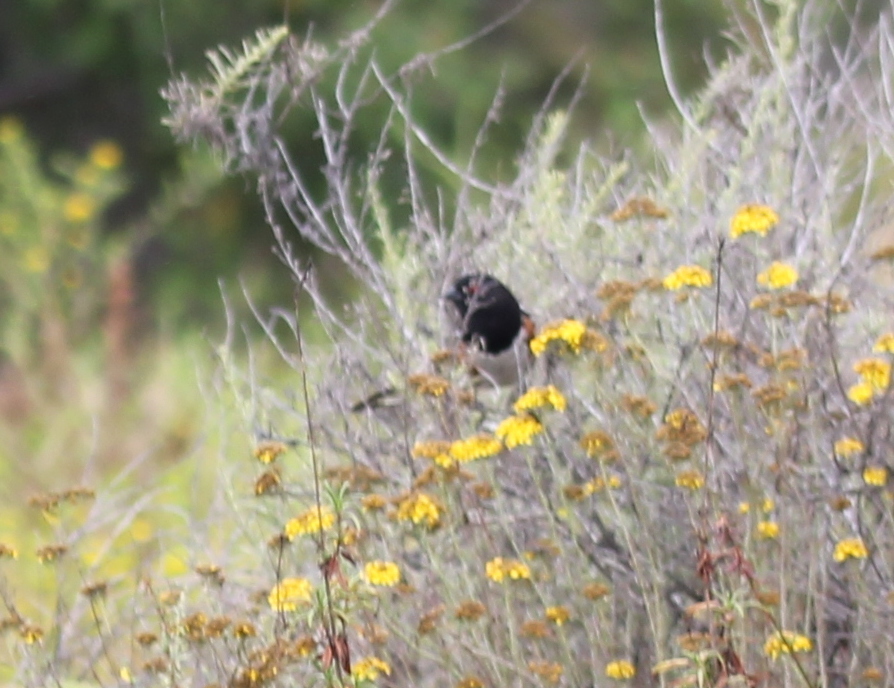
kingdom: Animalia
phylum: Chordata
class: Aves
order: Passeriformes
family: Passerellidae
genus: Pipilo
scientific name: Pipilo maculatus
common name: Spotted towhee
